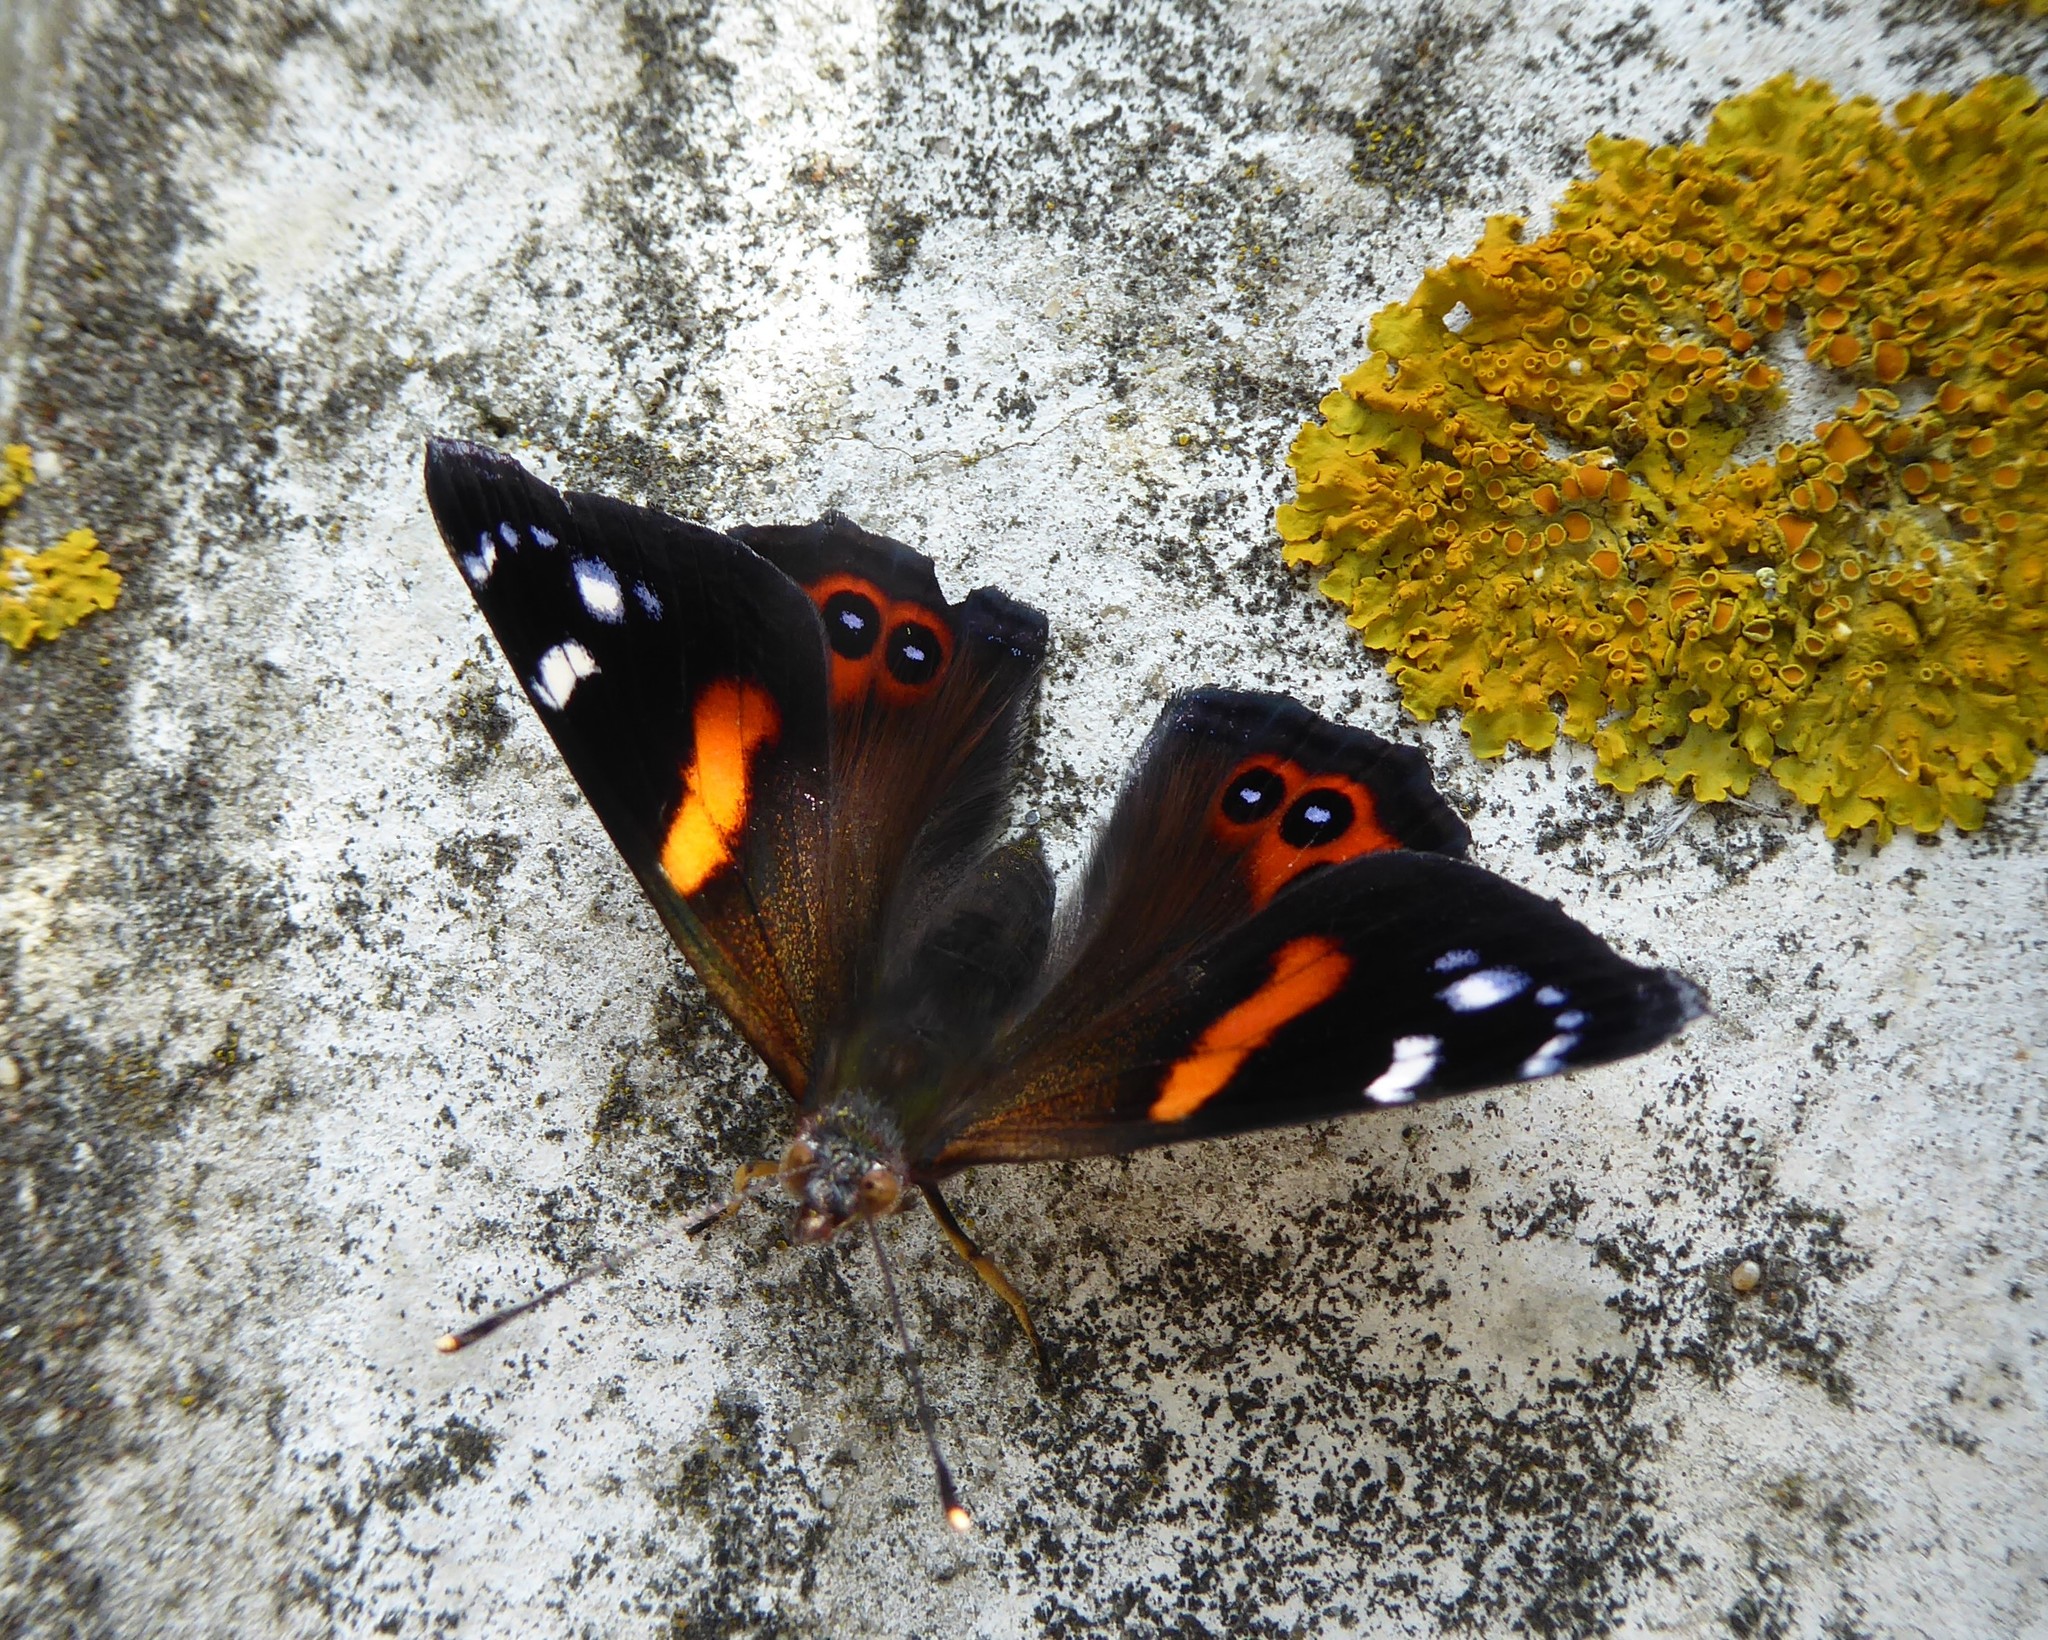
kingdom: Animalia
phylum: Arthropoda
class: Insecta
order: Lepidoptera
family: Nymphalidae
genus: Vanessa
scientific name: Vanessa gonerilla
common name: New zealand red admiral
